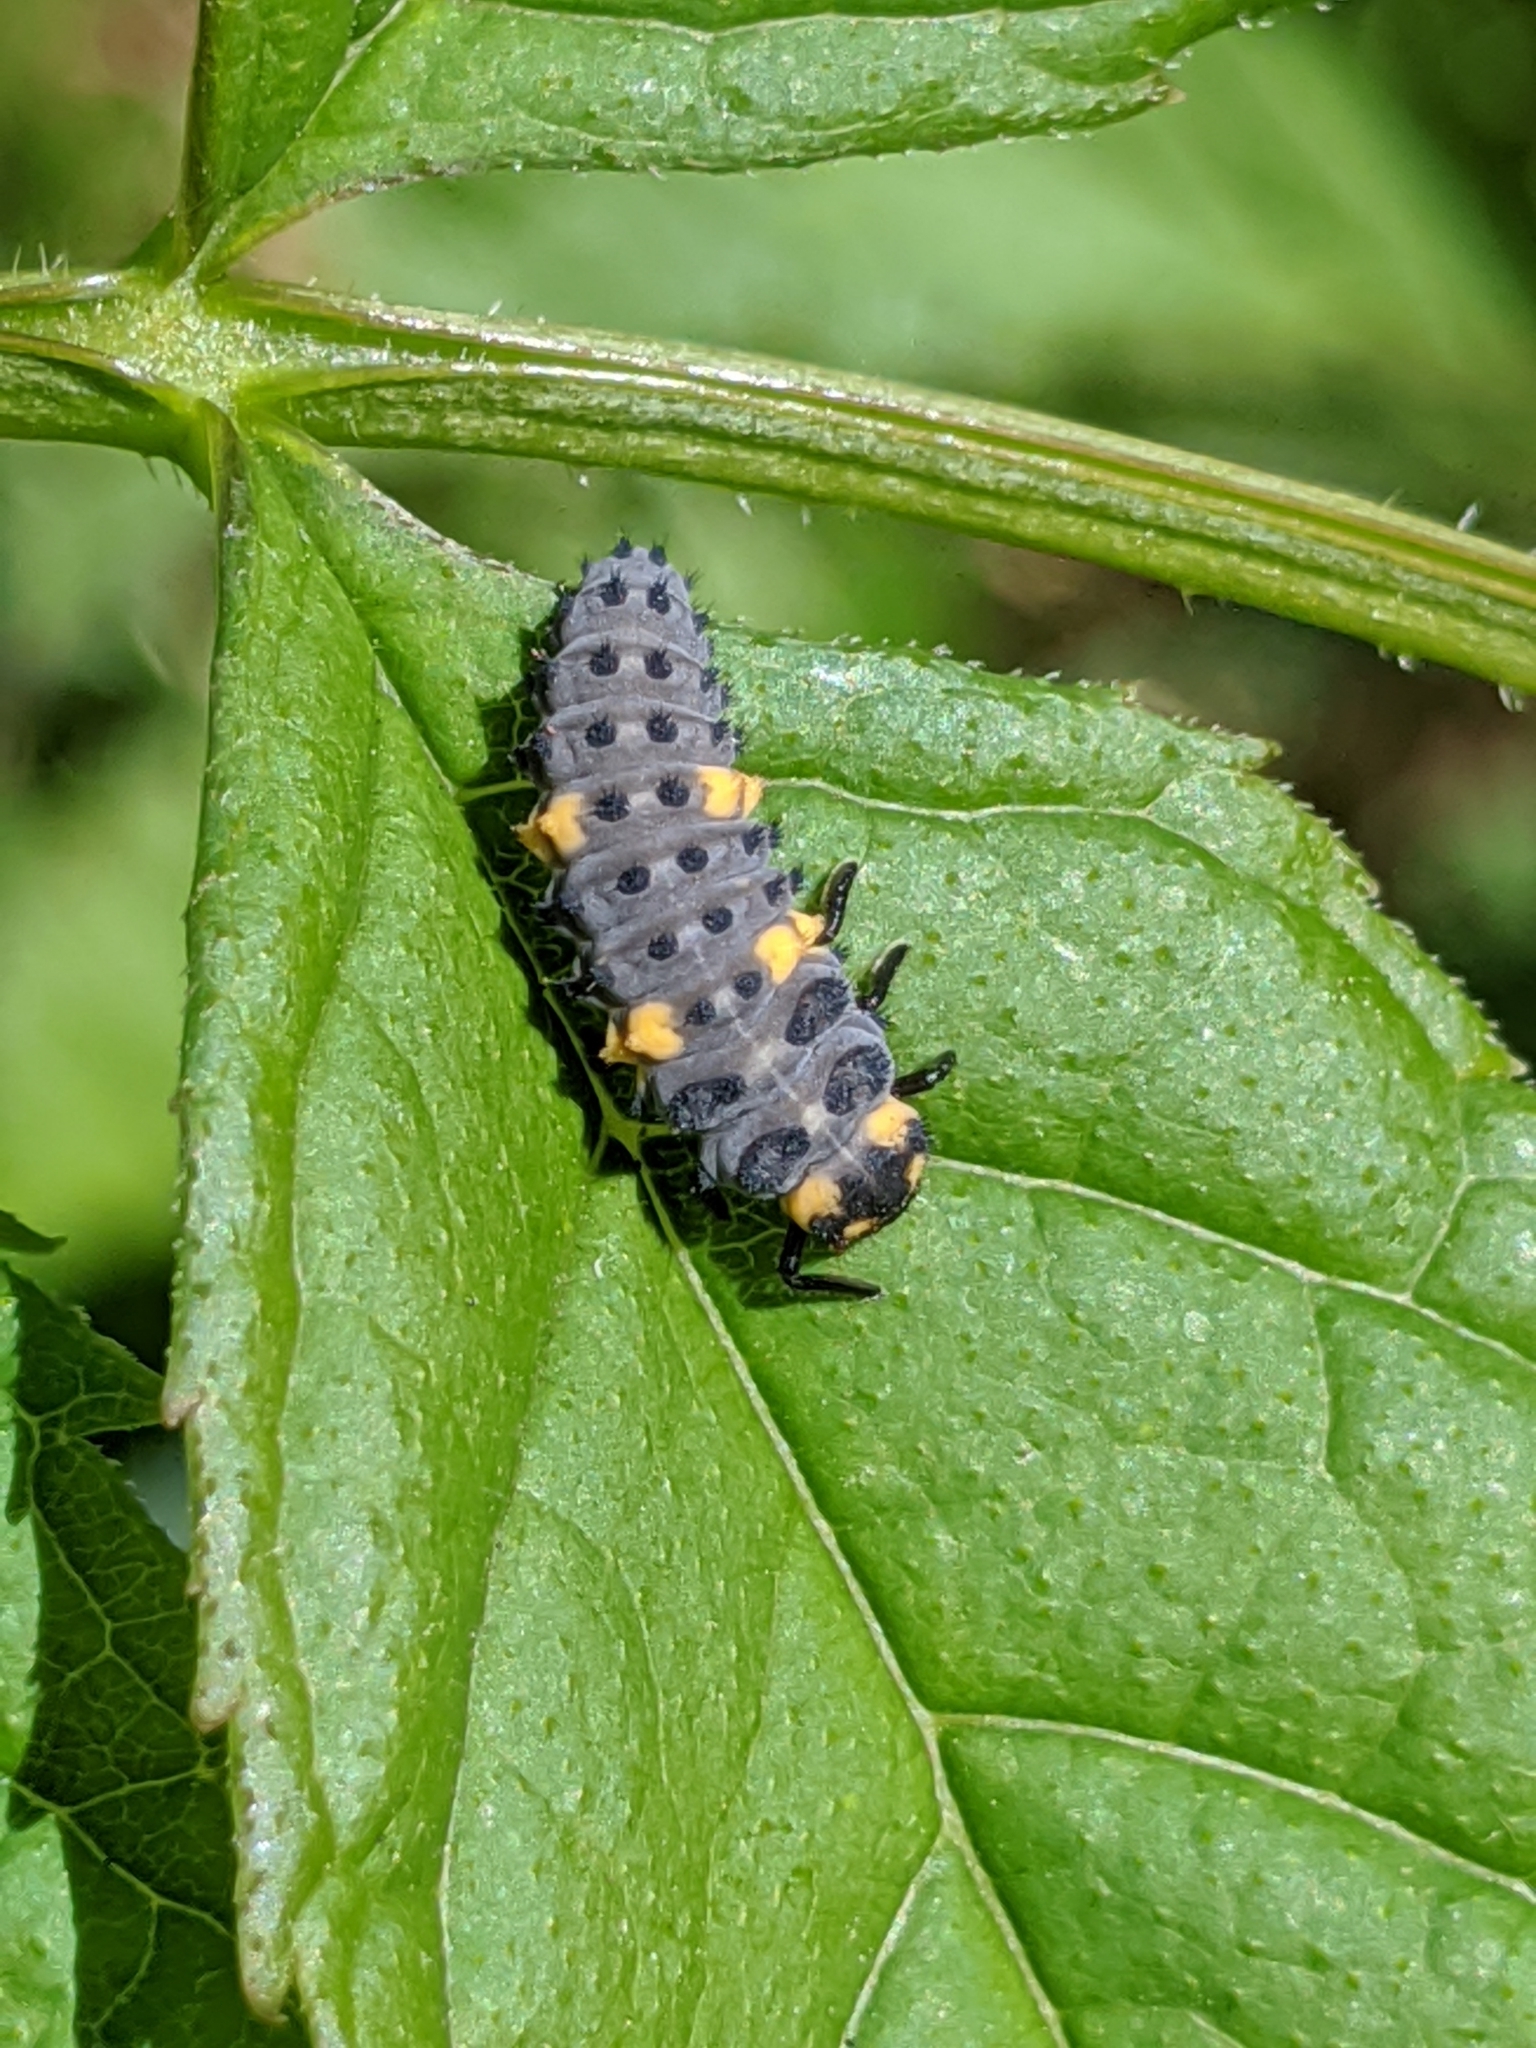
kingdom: Animalia
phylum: Arthropoda
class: Insecta
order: Coleoptera
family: Coccinellidae
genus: Coccinella
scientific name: Coccinella septempunctata
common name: Sevenspotted lady beetle
